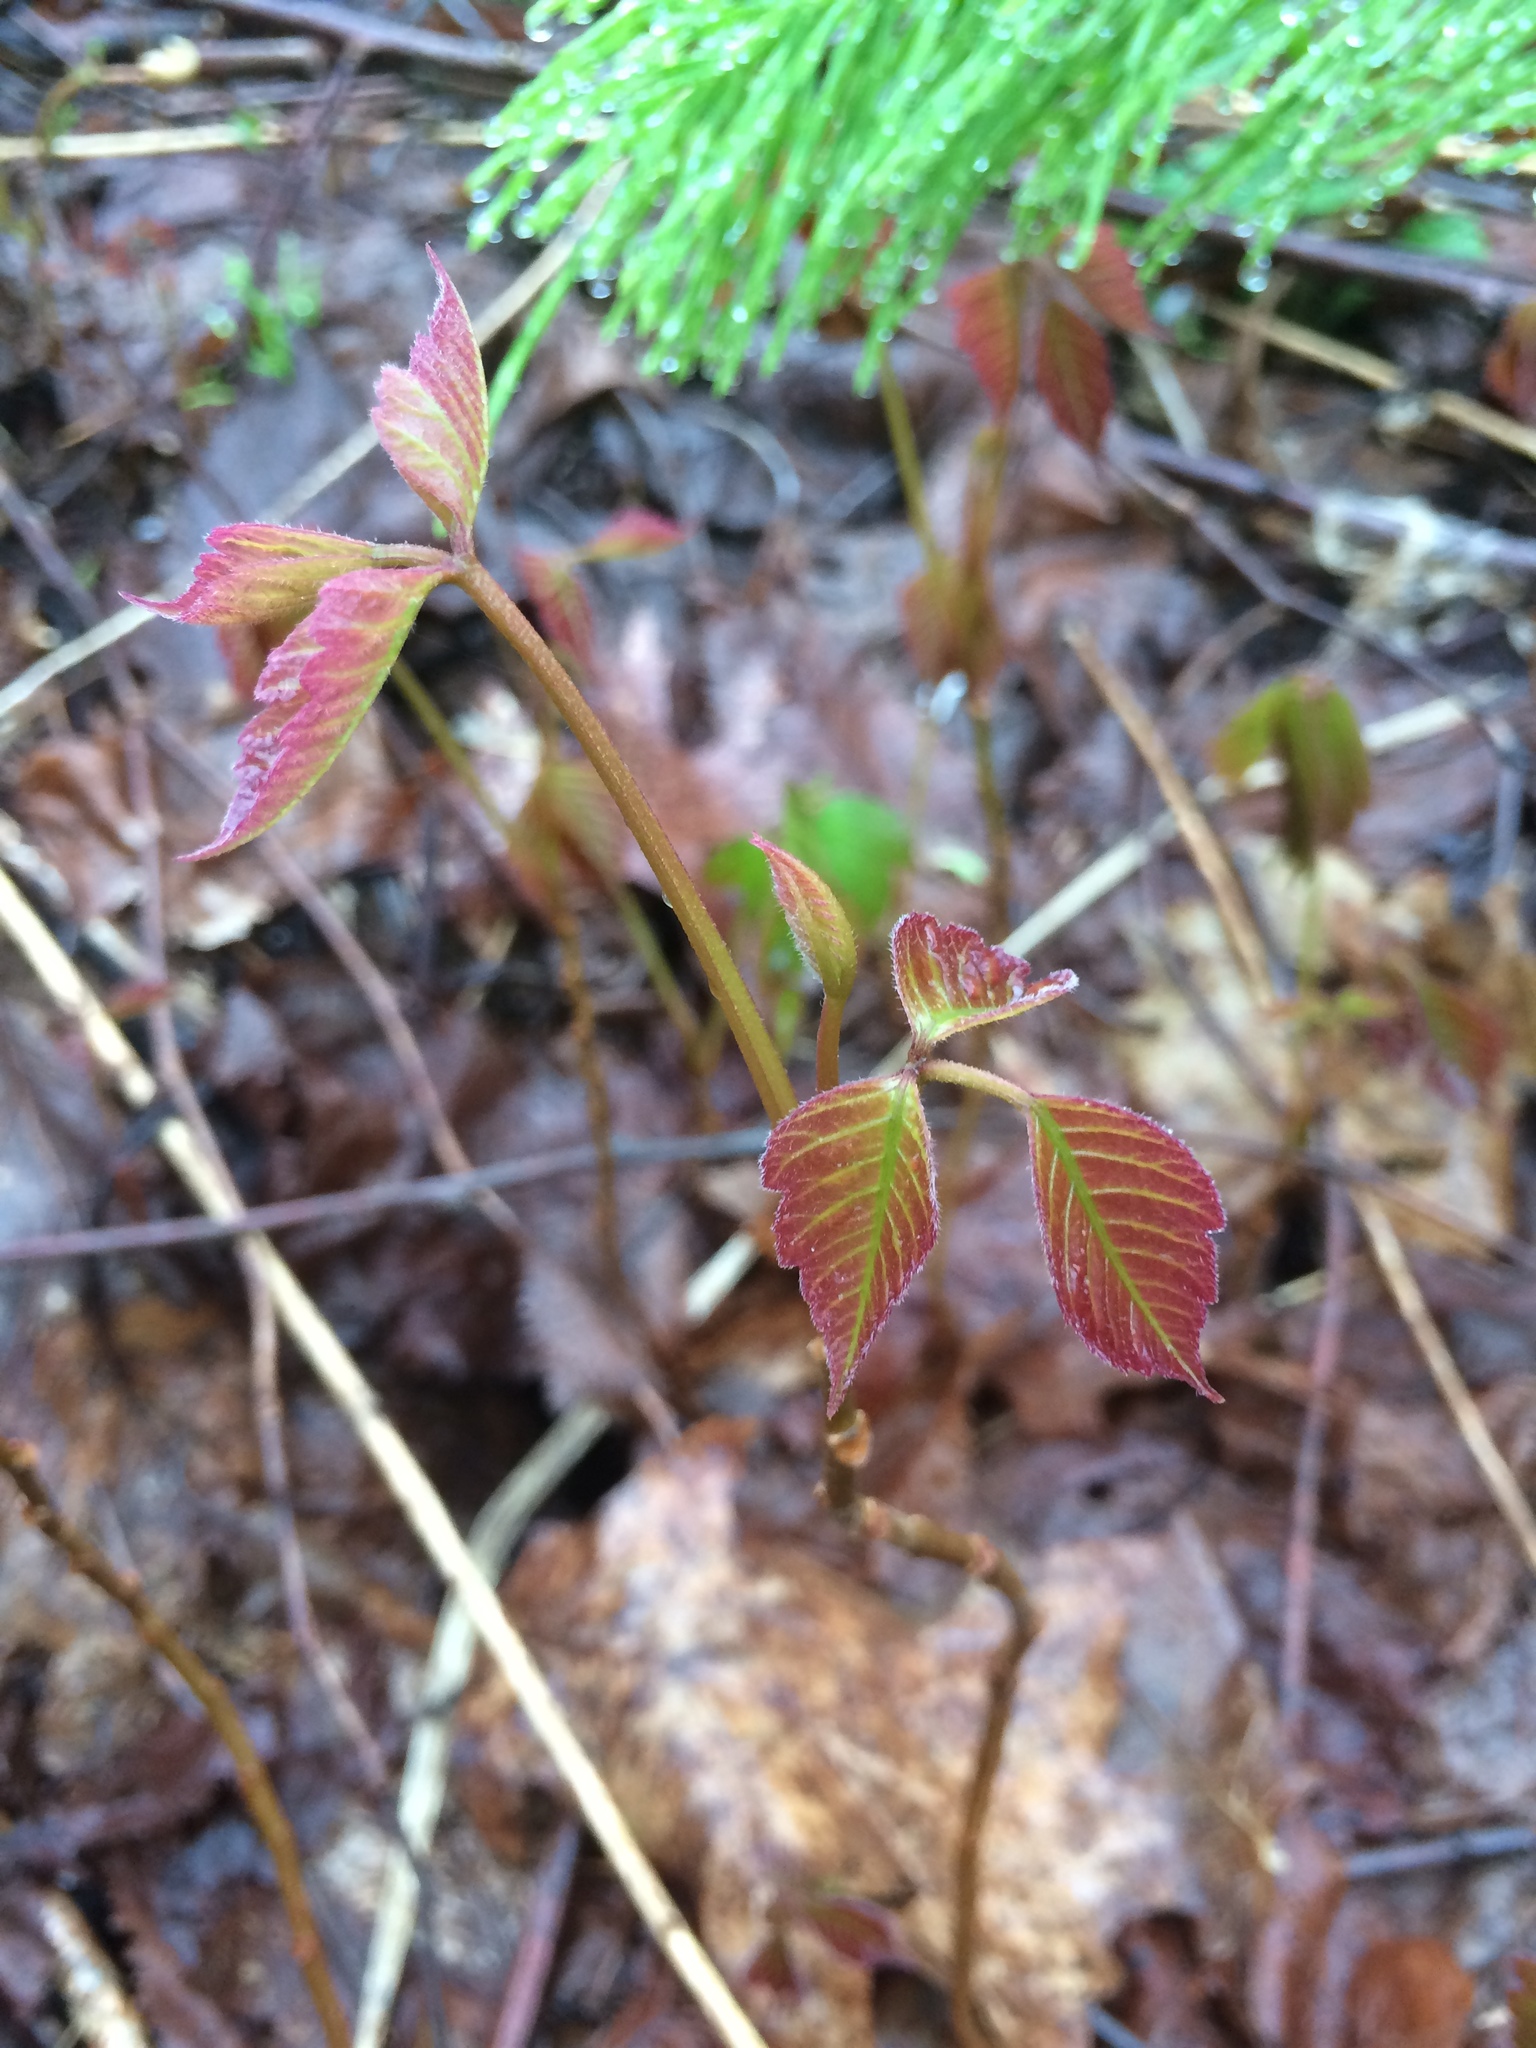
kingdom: Plantae
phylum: Tracheophyta
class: Magnoliopsida
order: Sapindales
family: Anacardiaceae
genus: Toxicodendron
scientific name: Toxicodendron radicans
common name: Poison ivy
